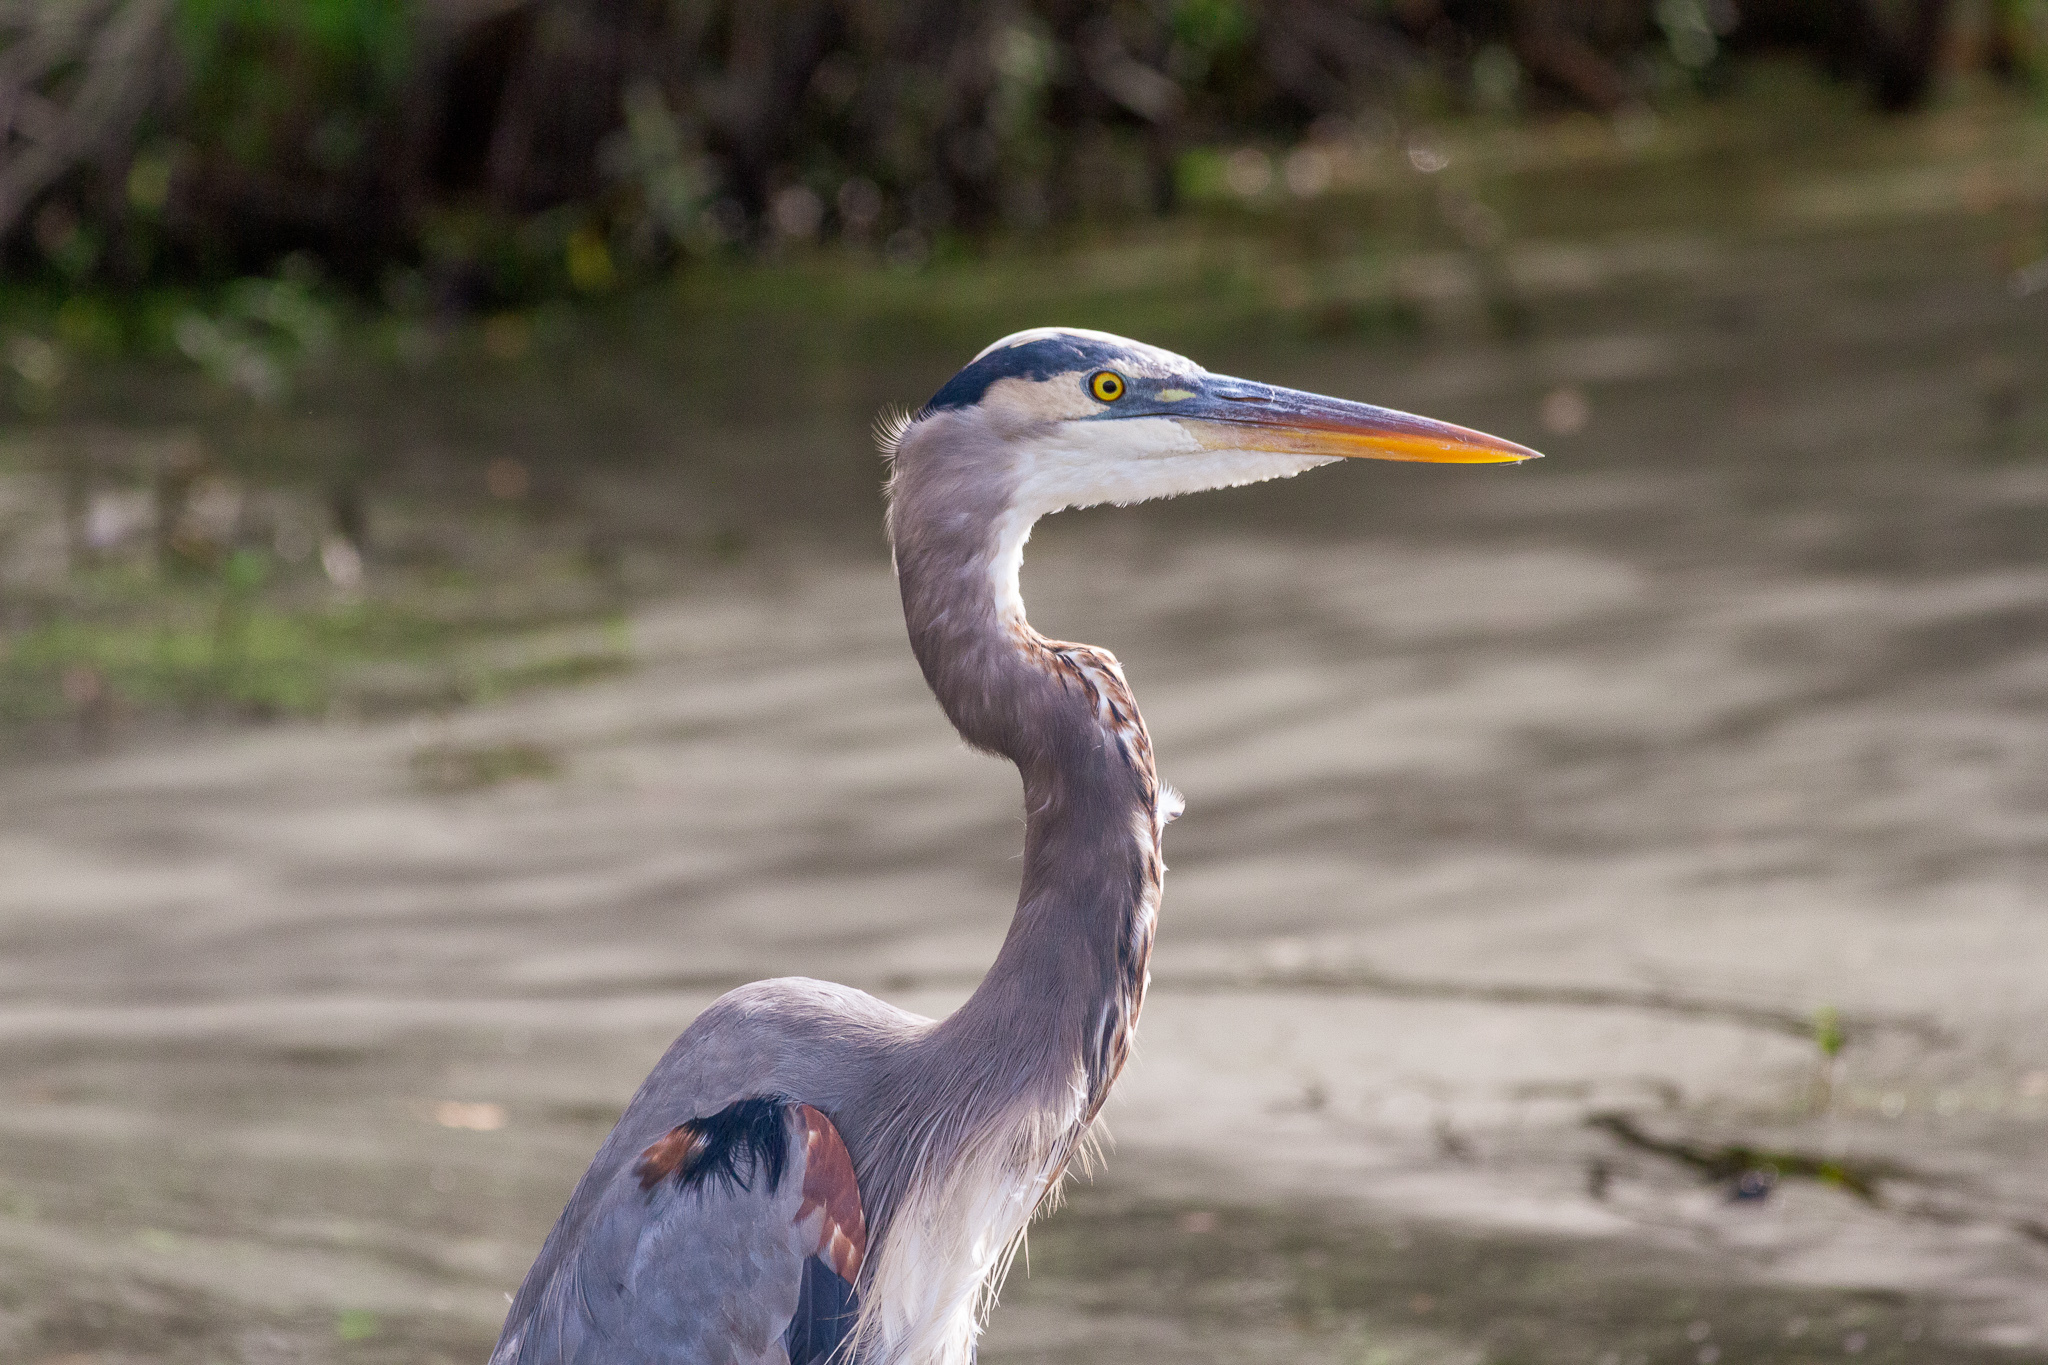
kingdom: Animalia
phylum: Chordata
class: Aves
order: Pelecaniformes
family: Ardeidae
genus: Ardea
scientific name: Ardea herodias
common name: Great blue heron
